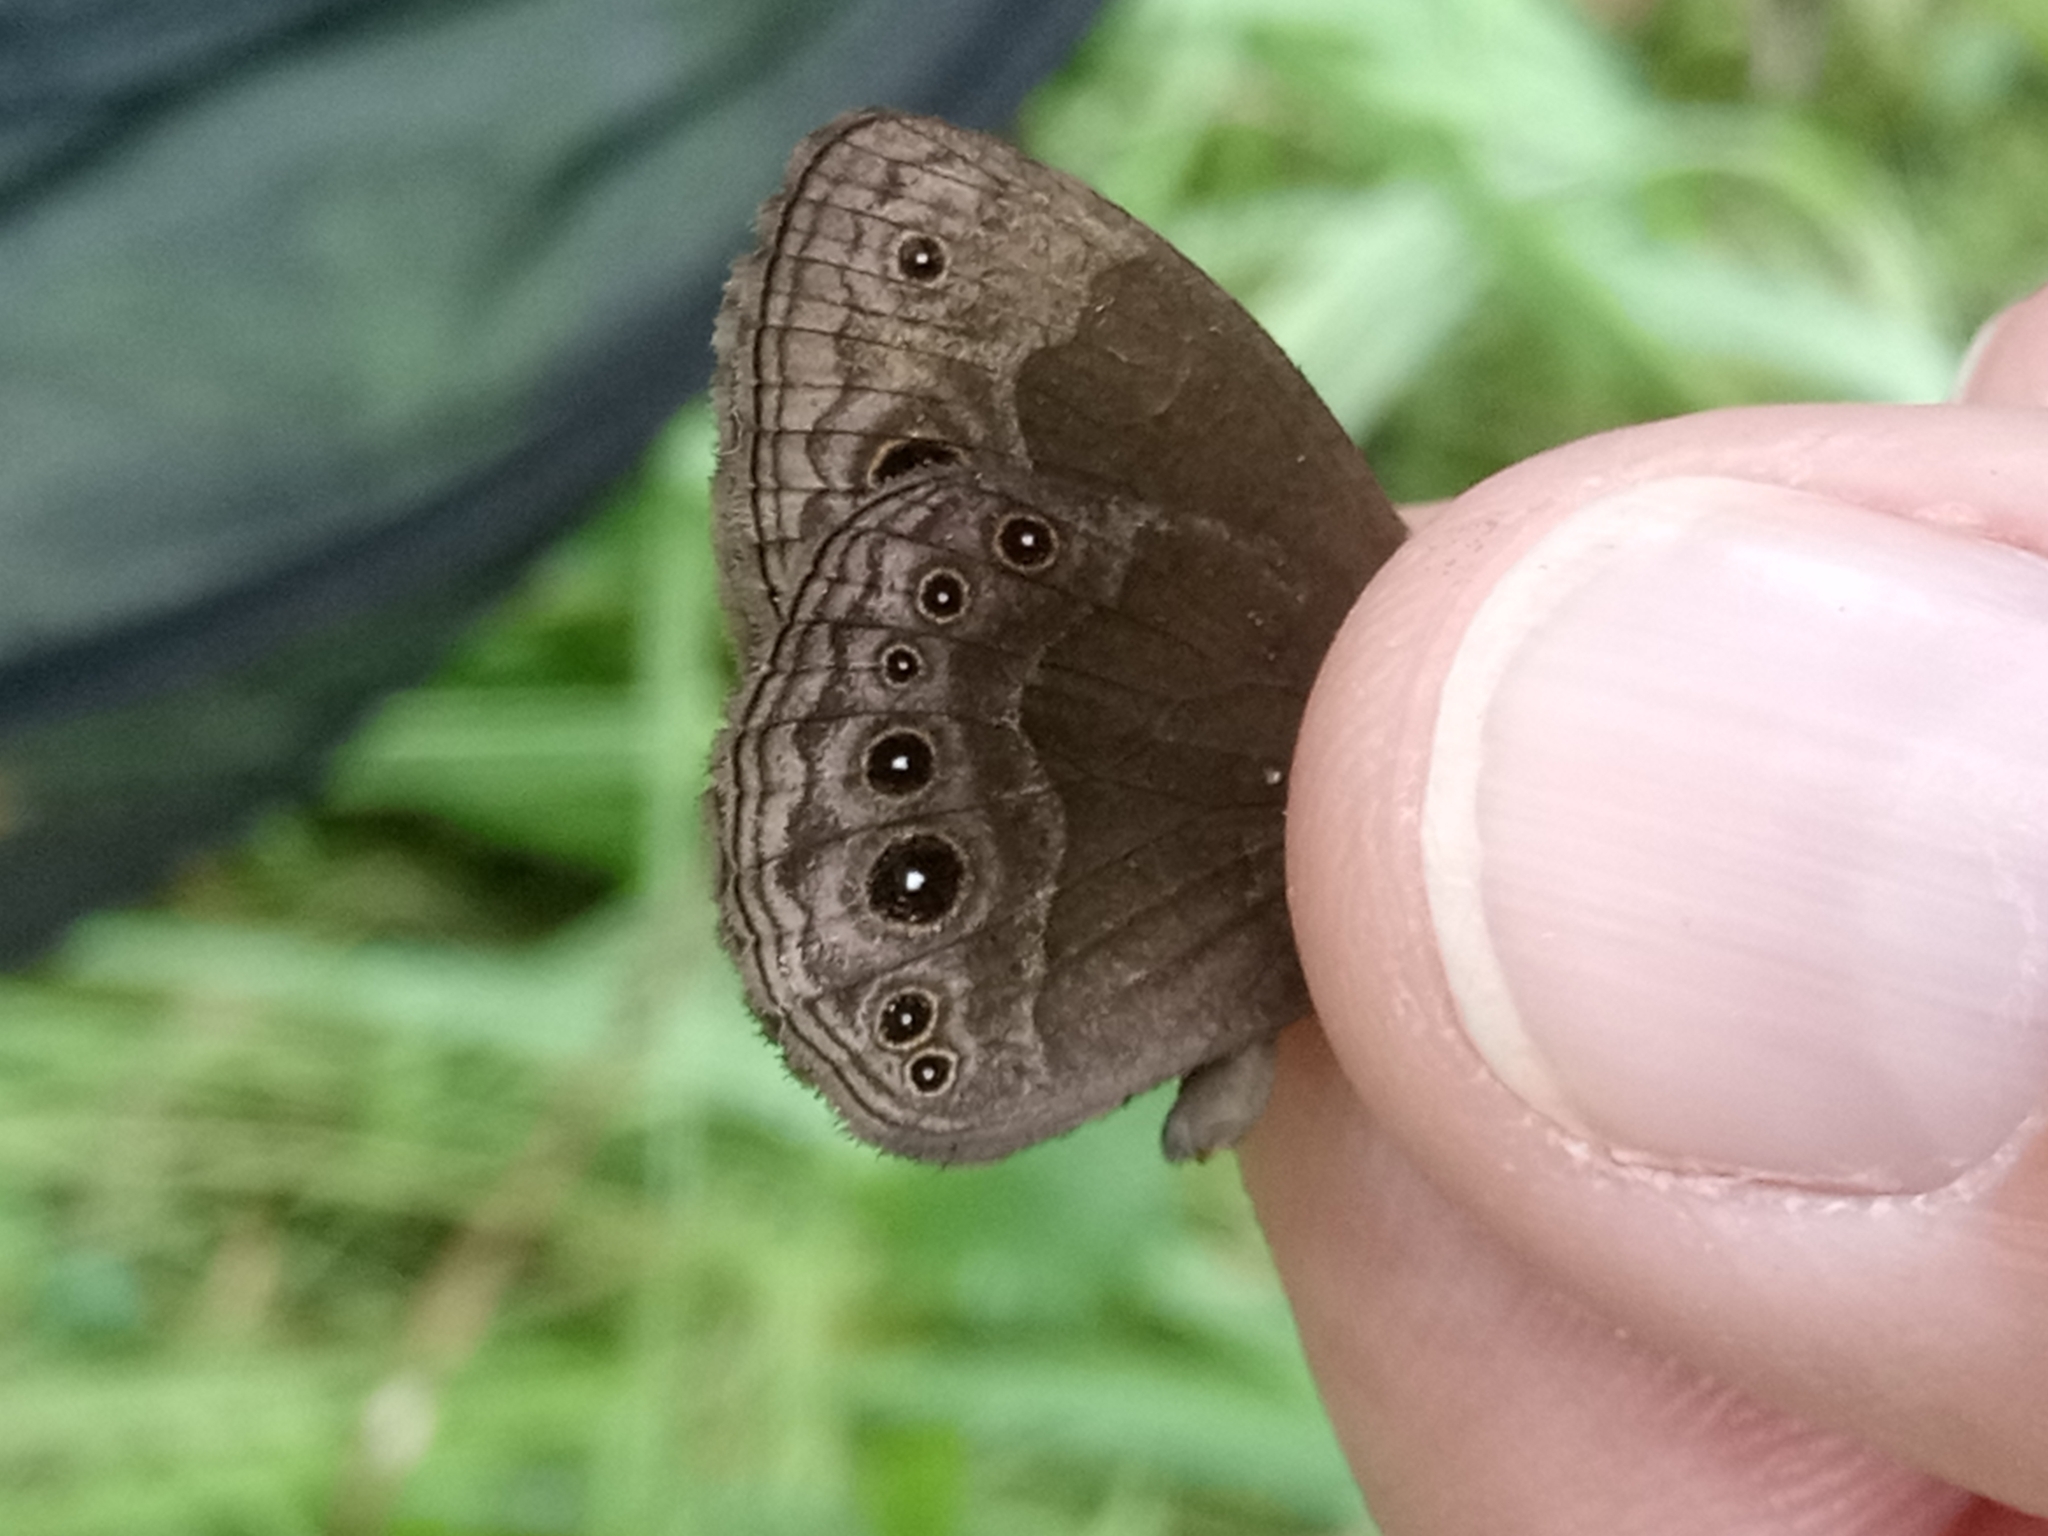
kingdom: Animalia
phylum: Arthropoda
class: Insecta
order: Lepidoptera
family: Nymphalidae
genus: Bicyclus
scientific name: Bicyclus campus
